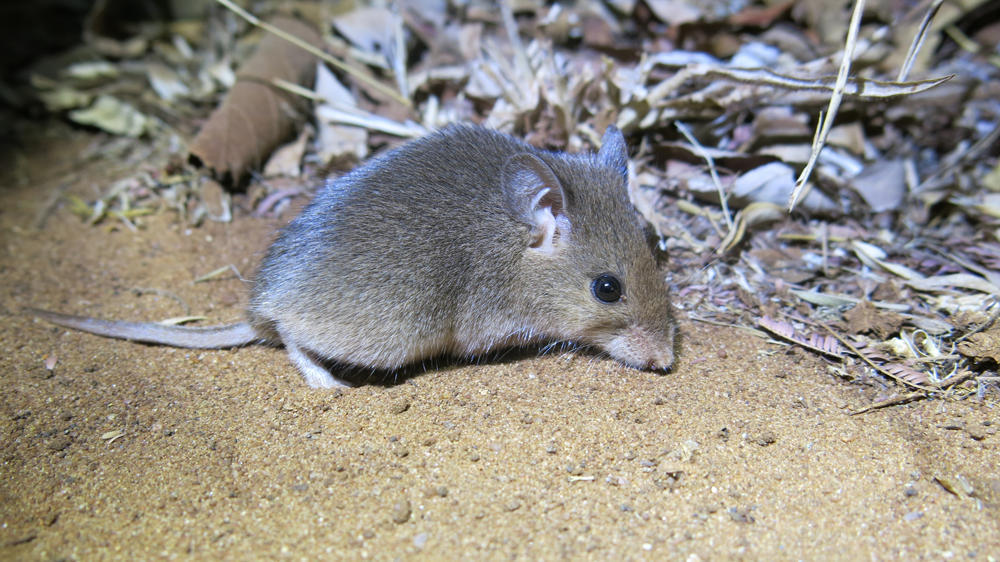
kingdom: Animalia
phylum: Chordata
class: Mammalia
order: Rodentia
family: Nesomyidae
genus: Saccostomus
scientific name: Saccostomus campestris
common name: Southern african pouched mouse
